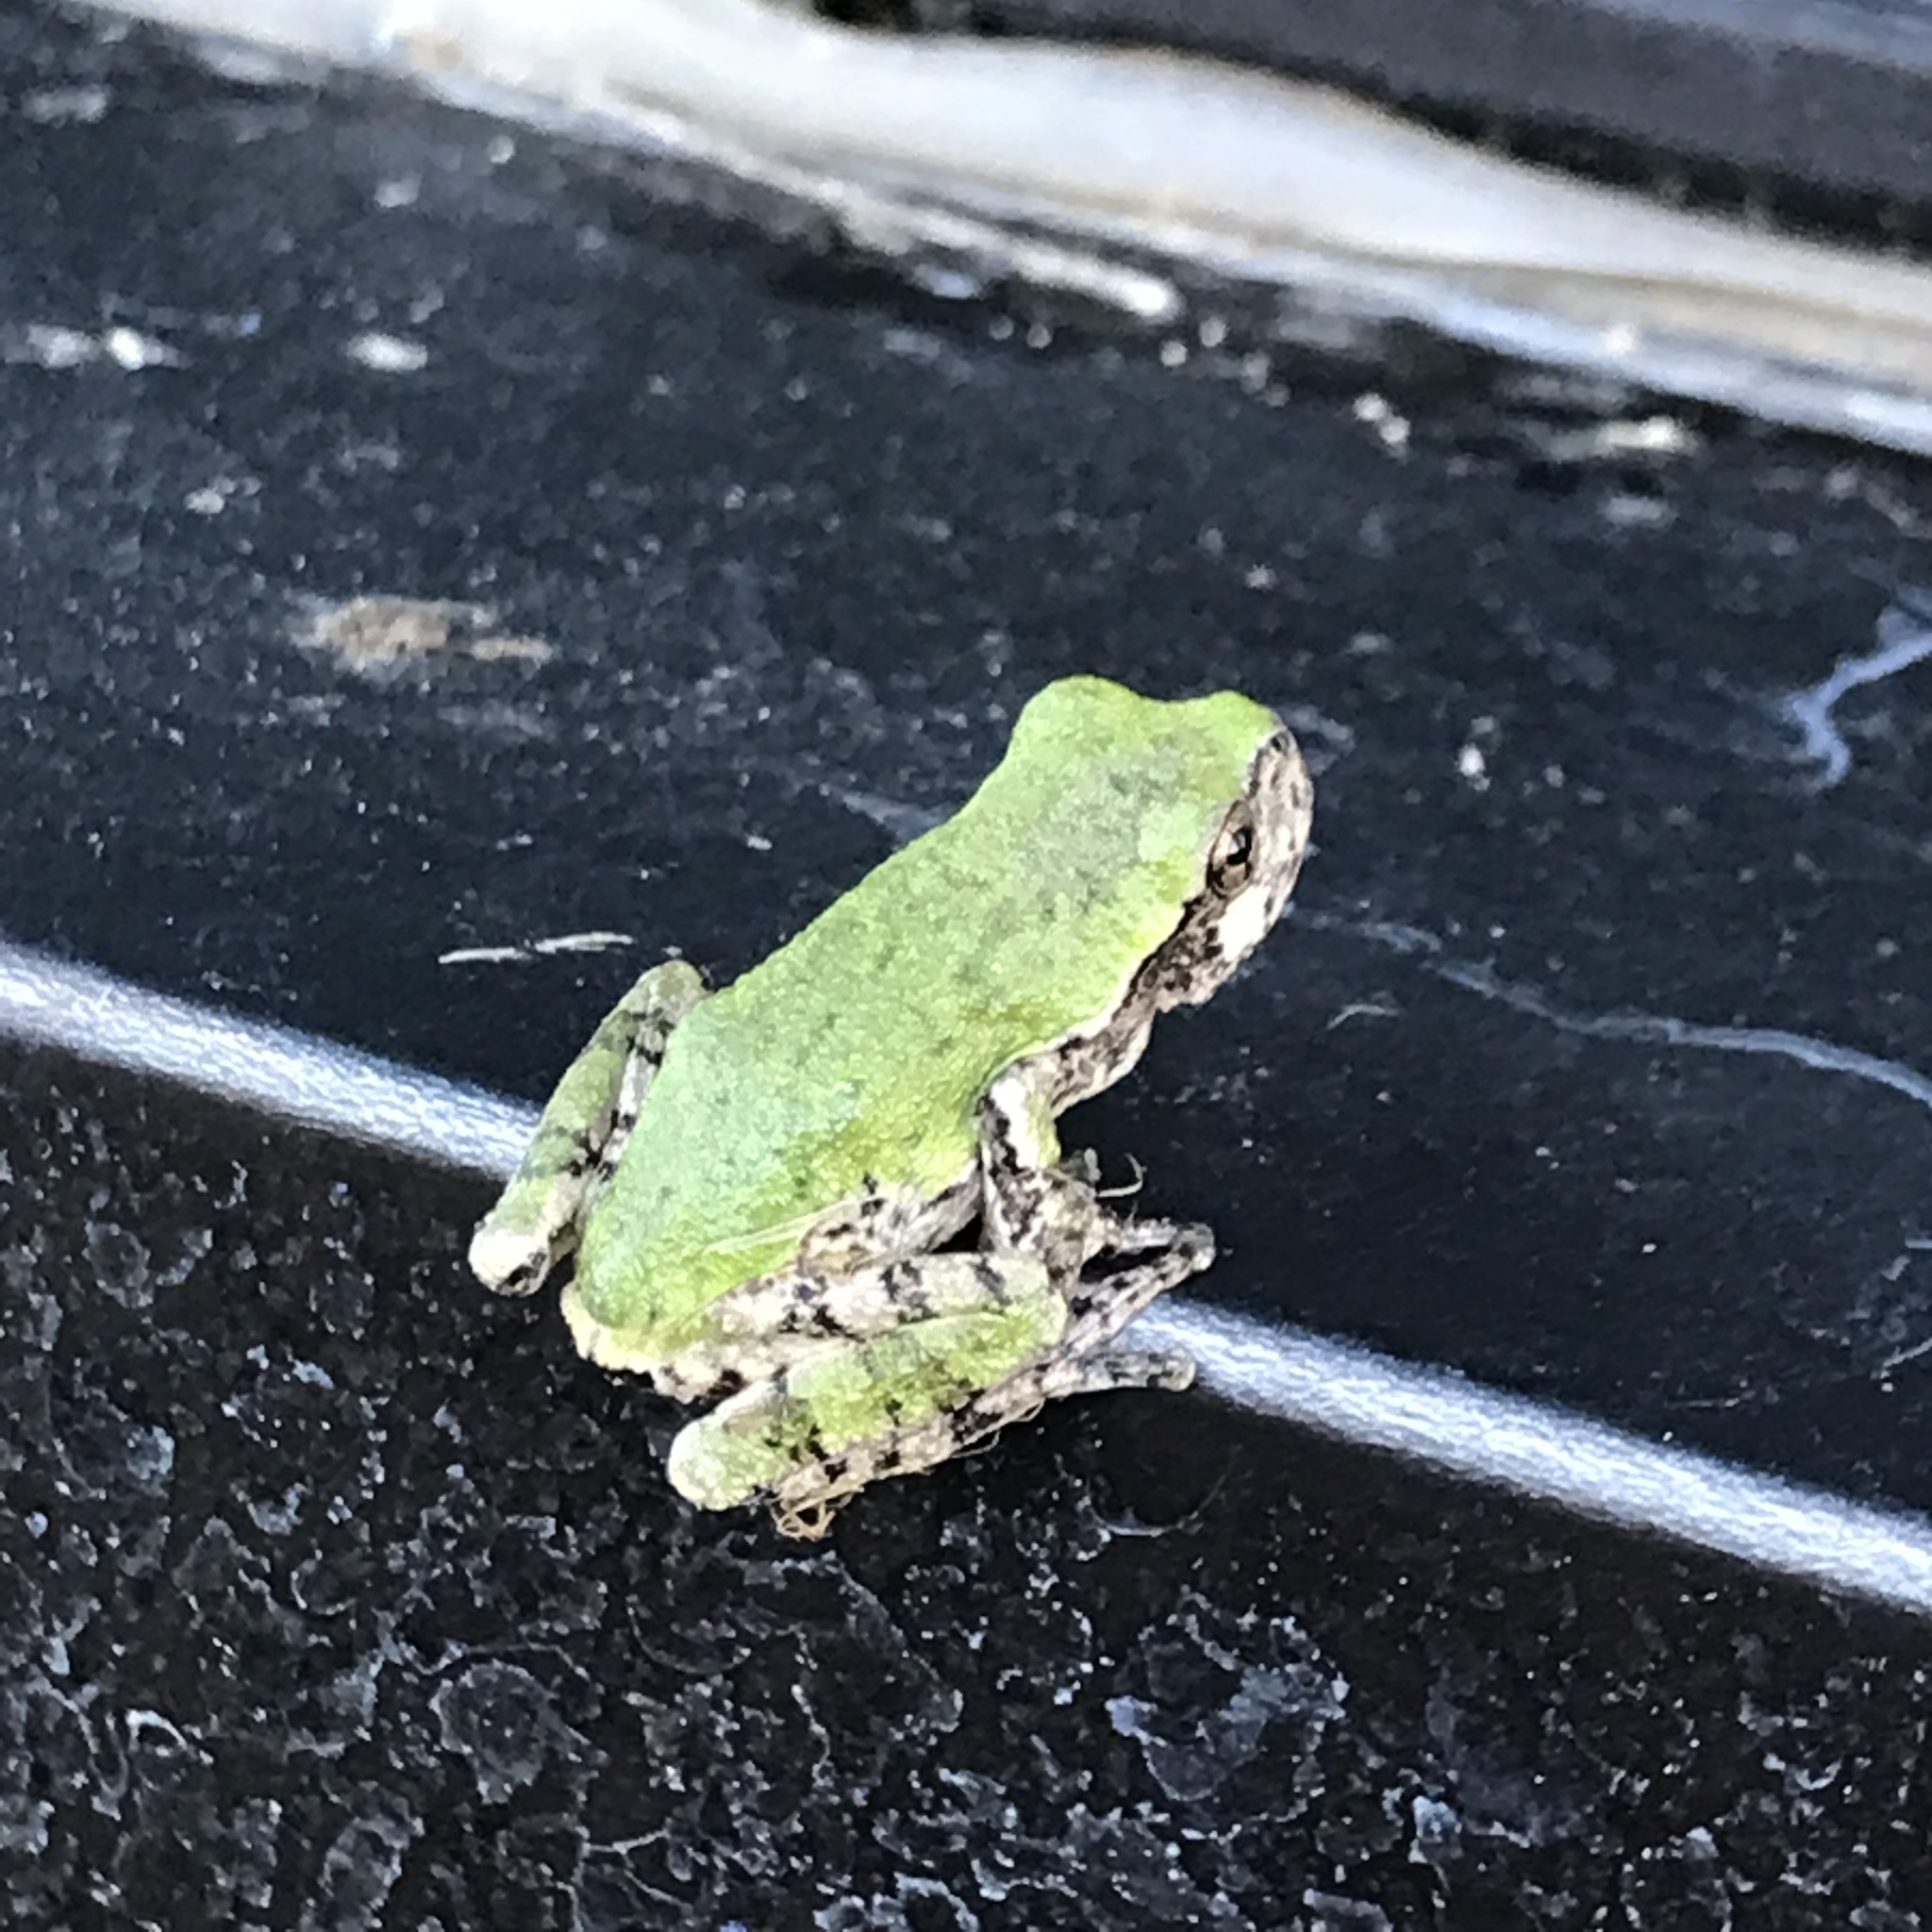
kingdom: Animalia
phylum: Chordata
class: Amphibia
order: Anura
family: Hylidae
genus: Hyla
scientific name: Hyla
